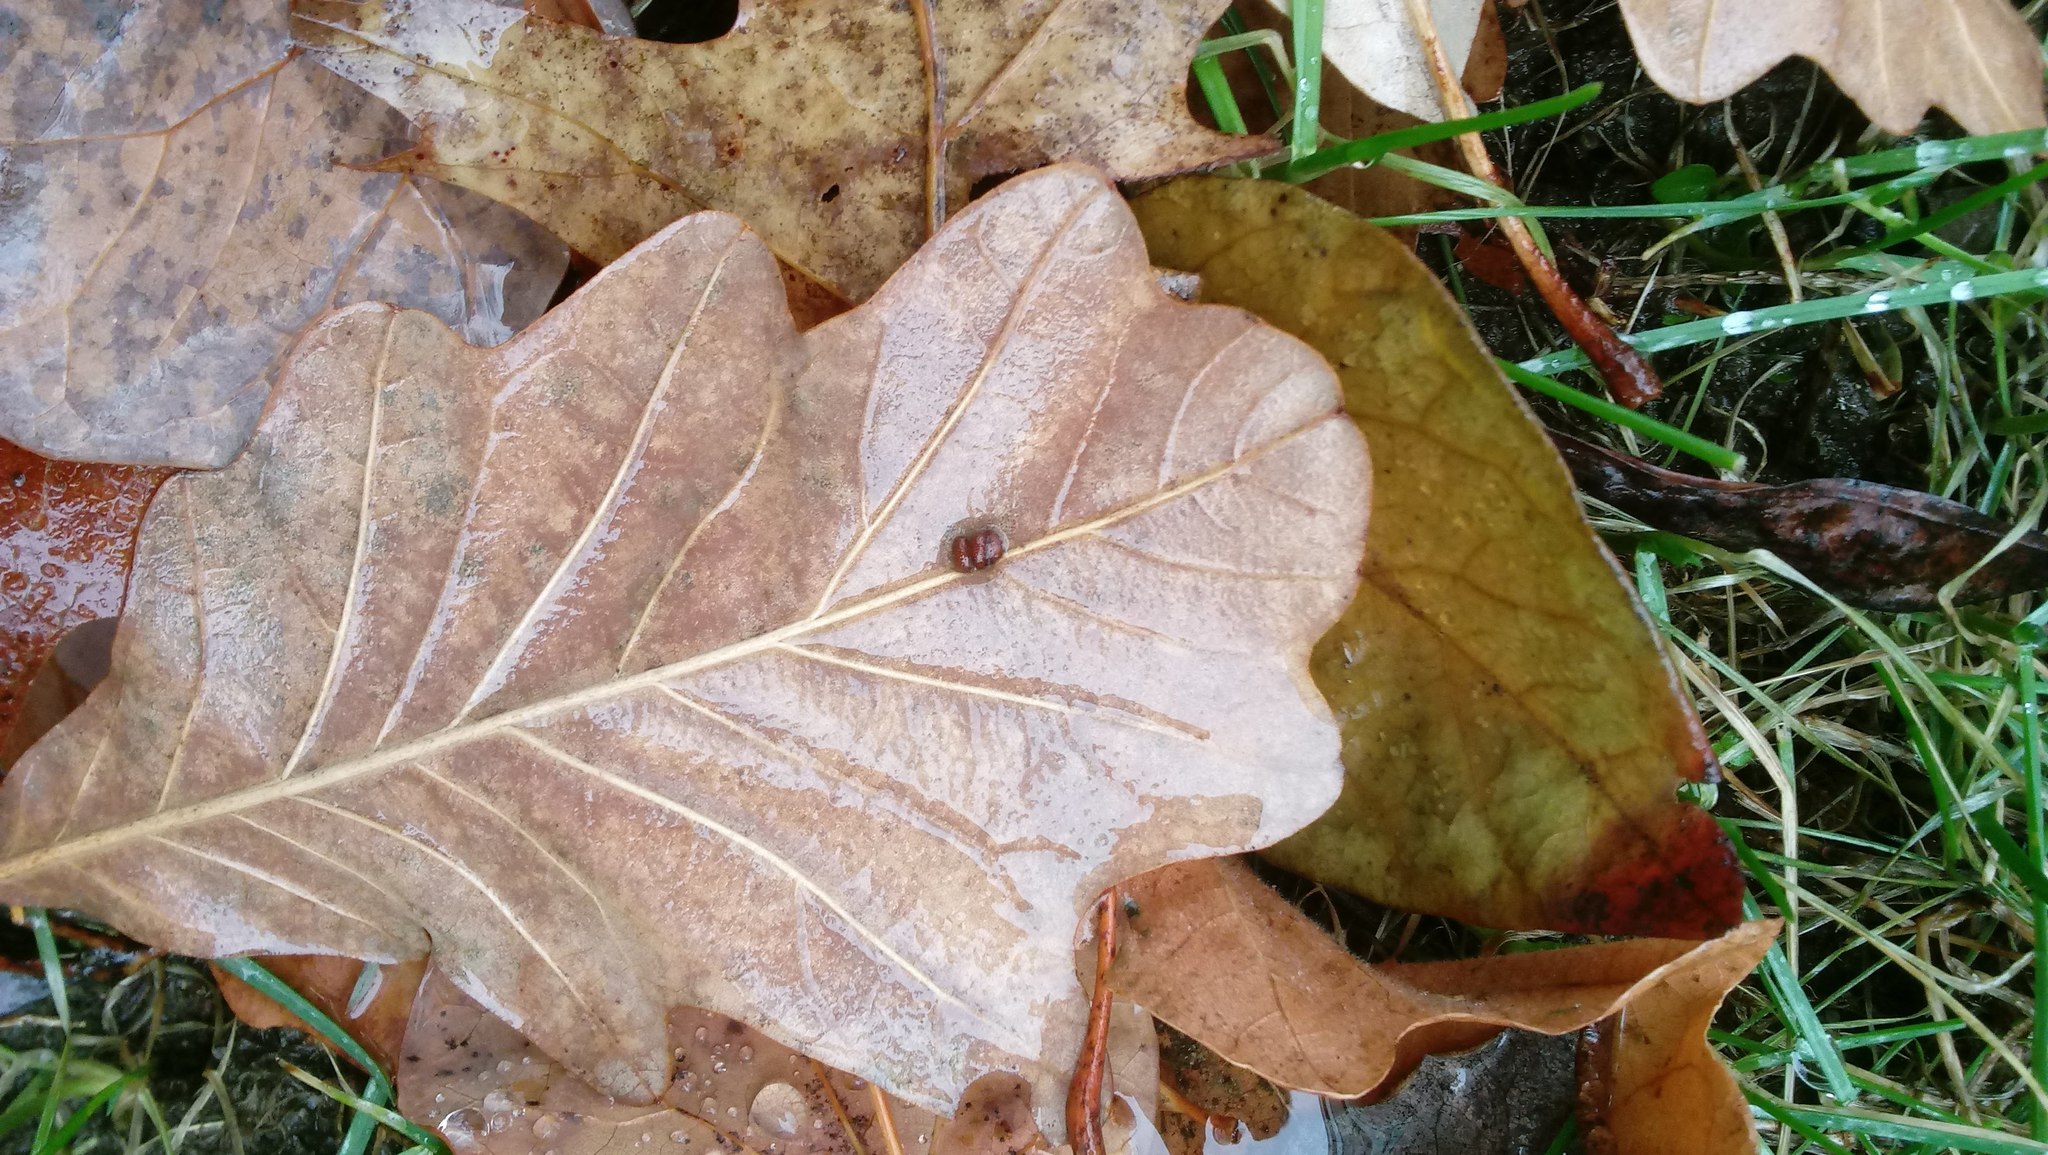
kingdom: Animalia
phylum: Arthropoda
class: Insecta
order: Hymenoptera
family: Cynipidae
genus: Andricus
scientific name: Andricus Druon ignotum
